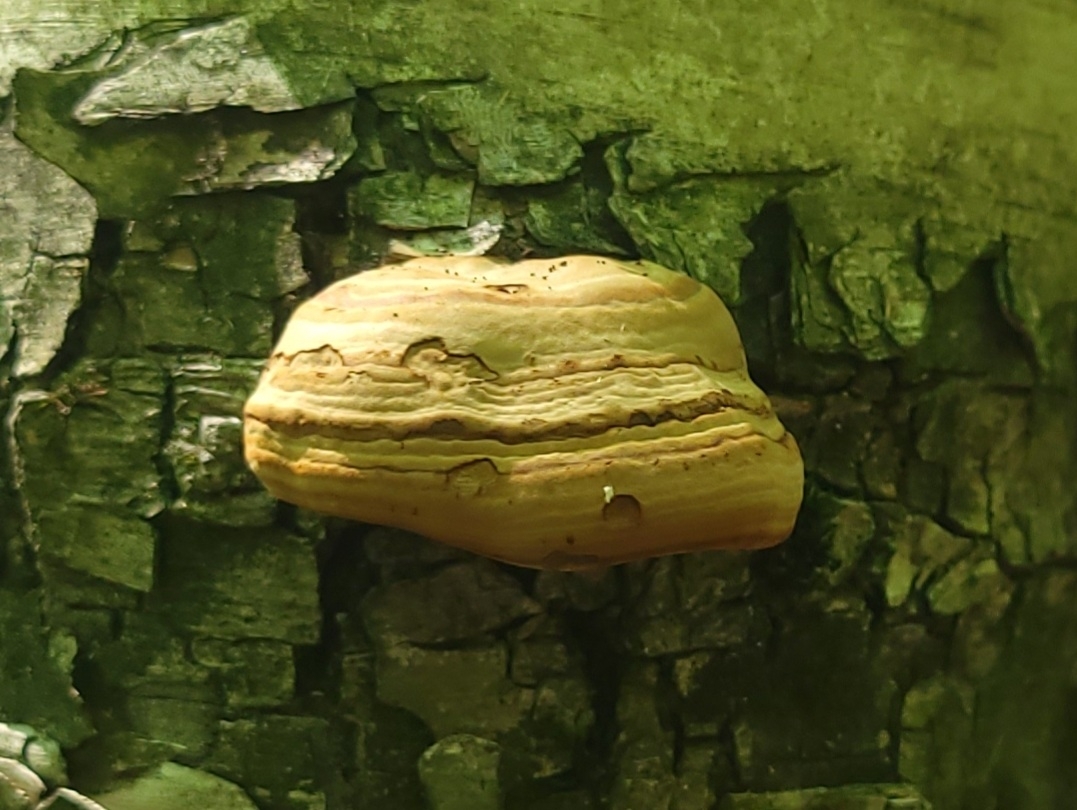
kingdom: Fungi
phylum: Basidiomycota
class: Agaricomycetes
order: Polyporales
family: Polyporaceae
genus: Fomes
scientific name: Fomes fomentarius
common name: Hoof fungus
